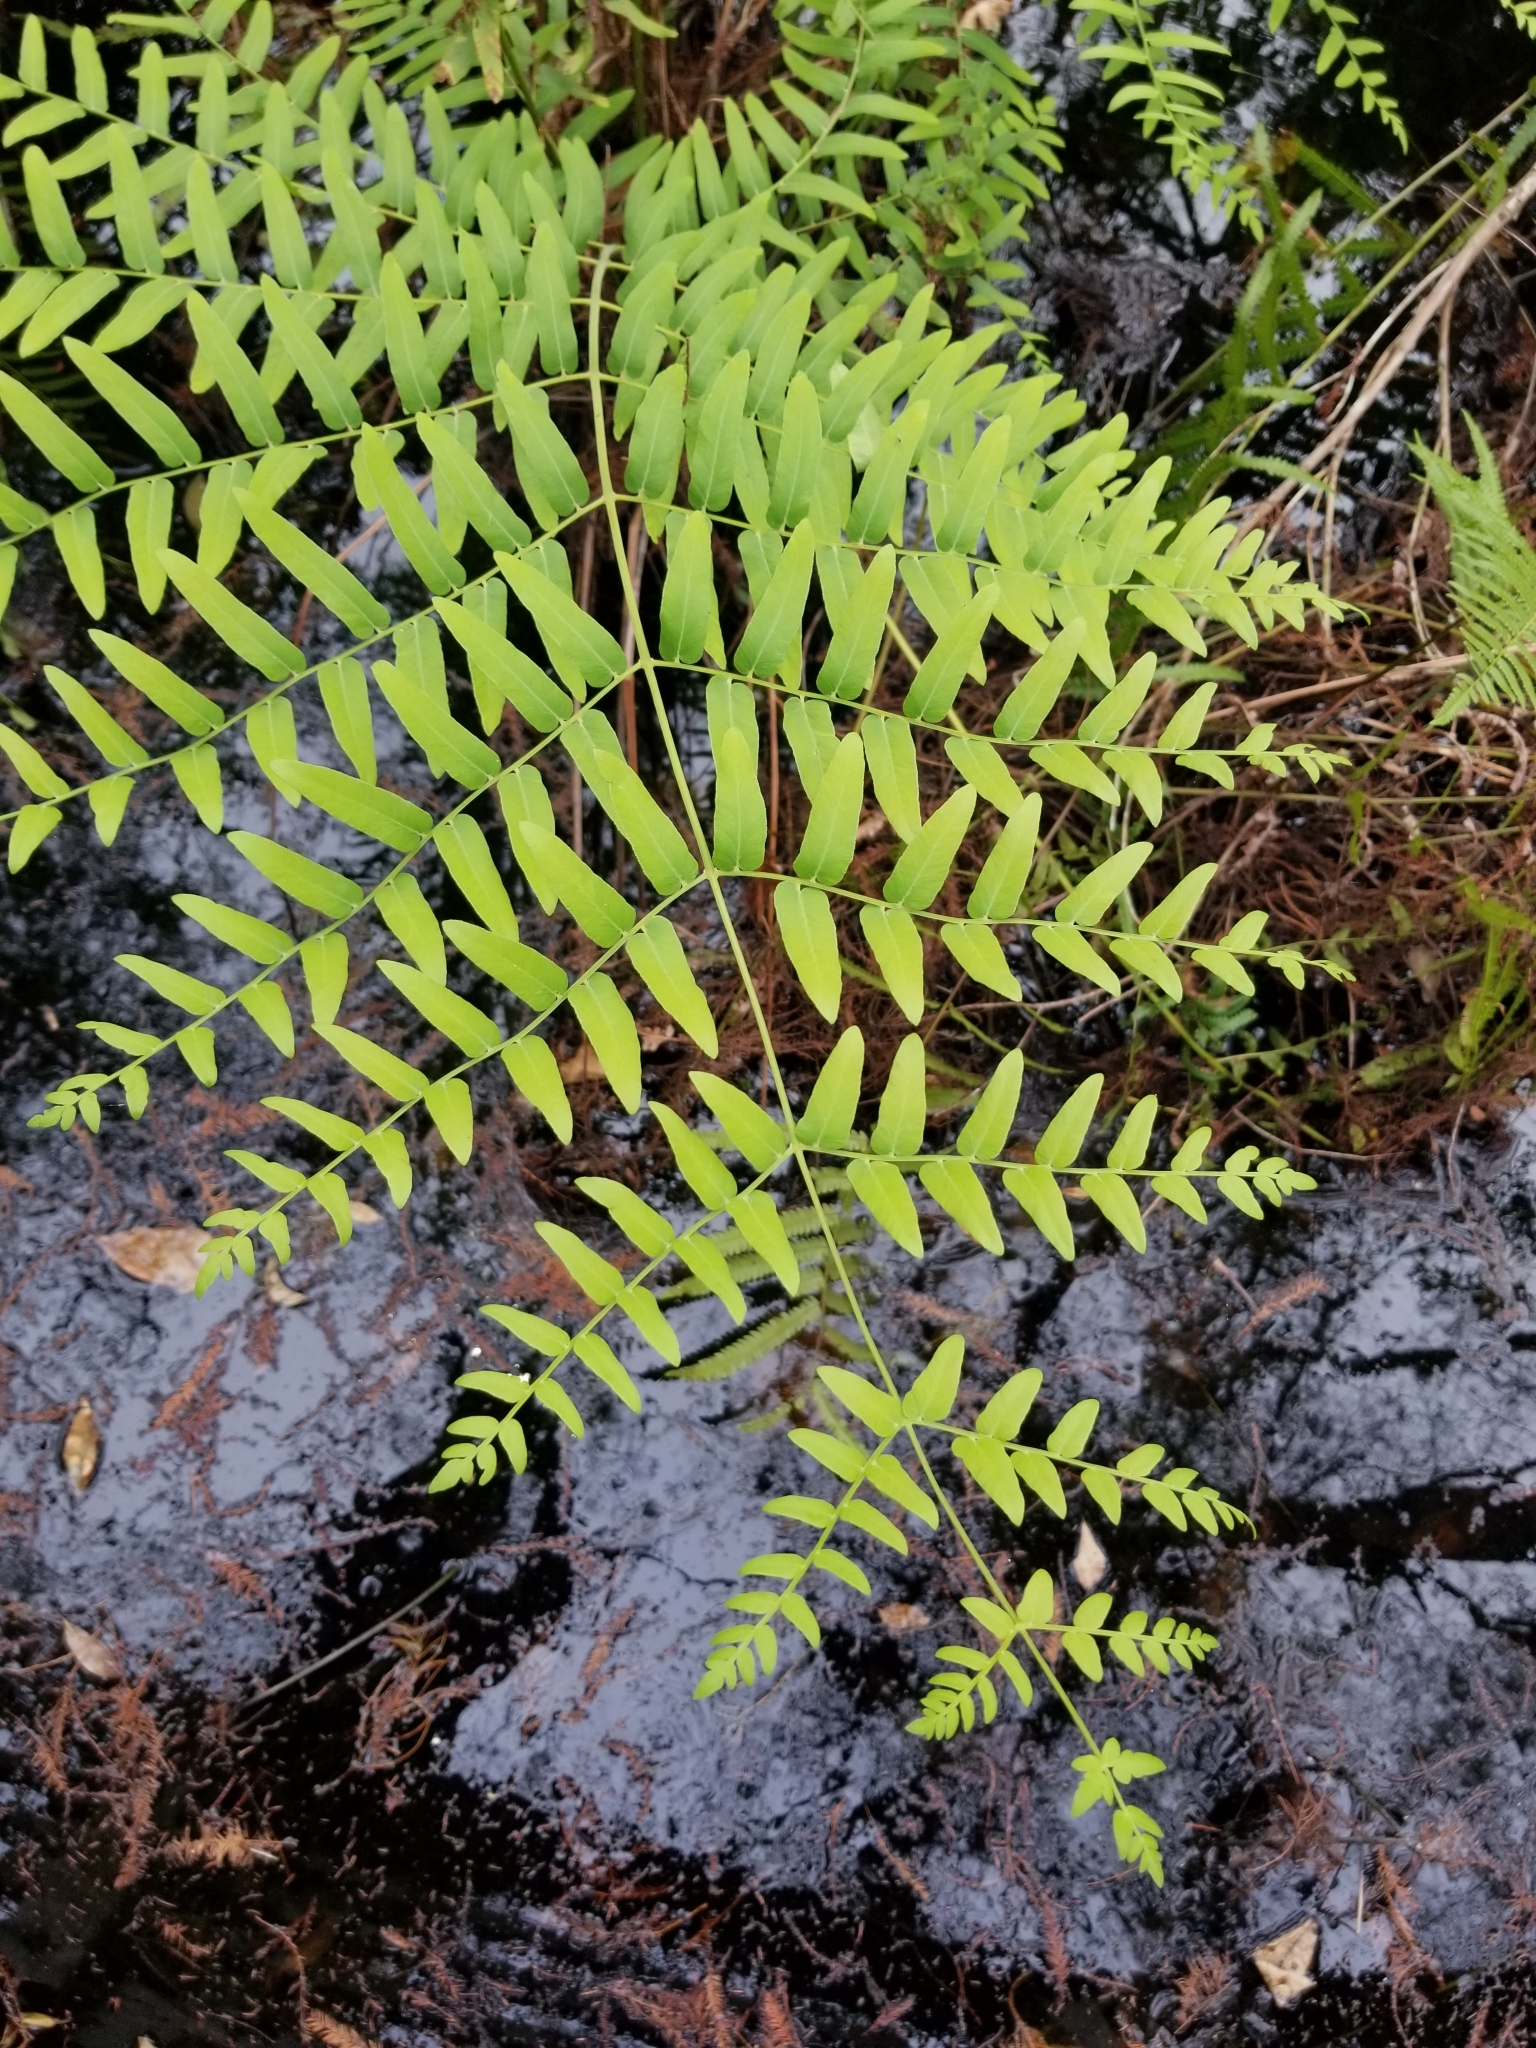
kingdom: Plantae
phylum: Tracheophyta
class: Polypodiopsida
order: Osmundales
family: Osmundaceae
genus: Osmunda
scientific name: Osmunda spectabilis
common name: American royal fern
